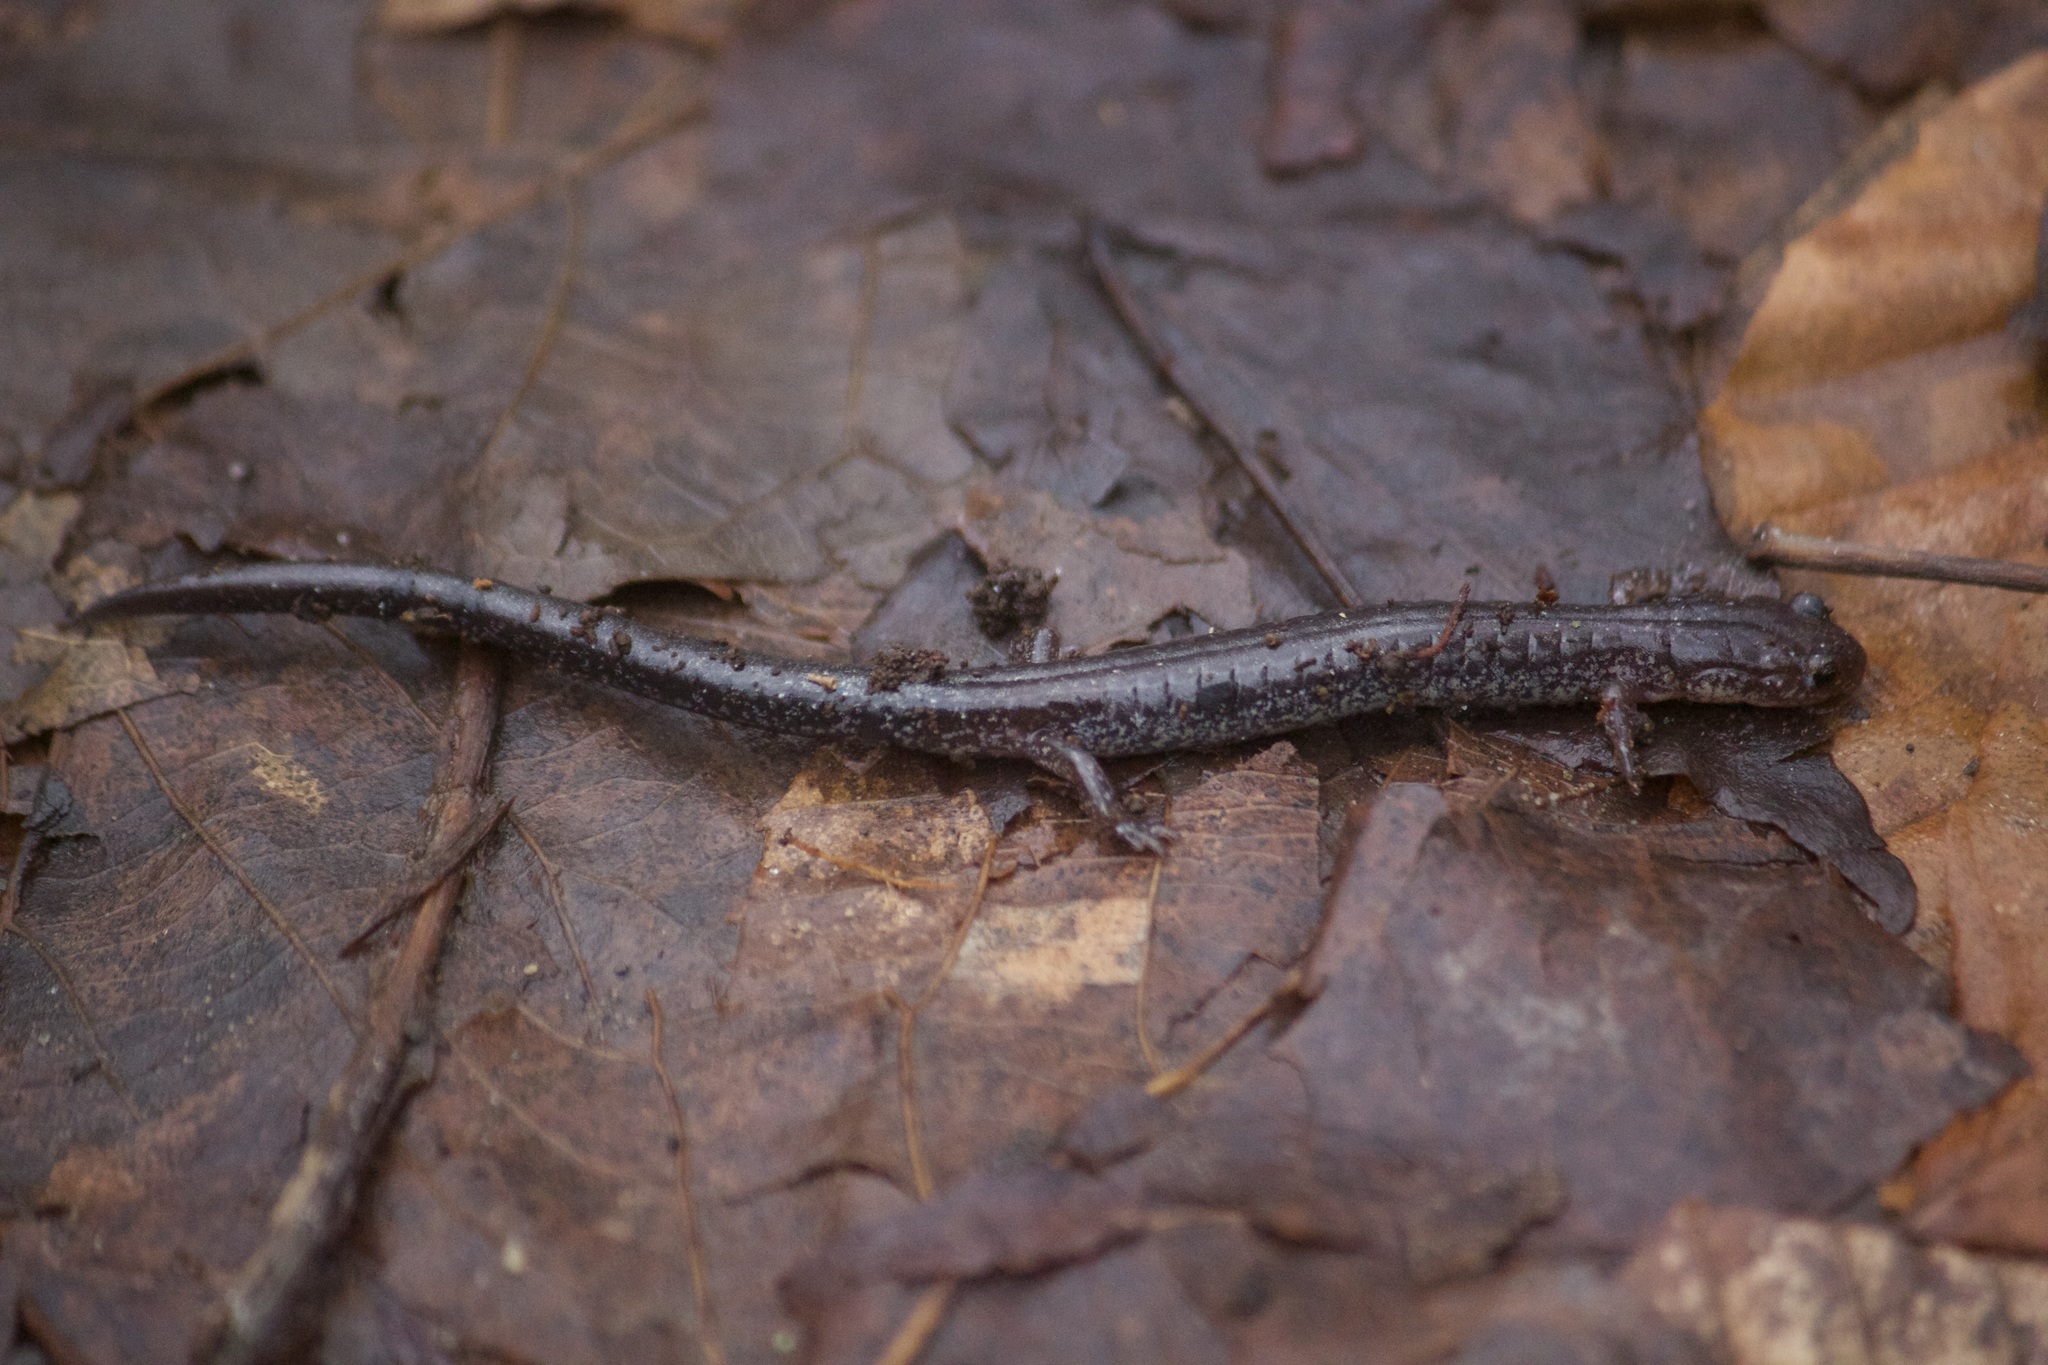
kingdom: Animalia
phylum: Chordata
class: Amphibia
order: Caudata
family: Plethodontidae
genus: Plethodon
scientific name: Plethodon cinereus
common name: Redback salamander
